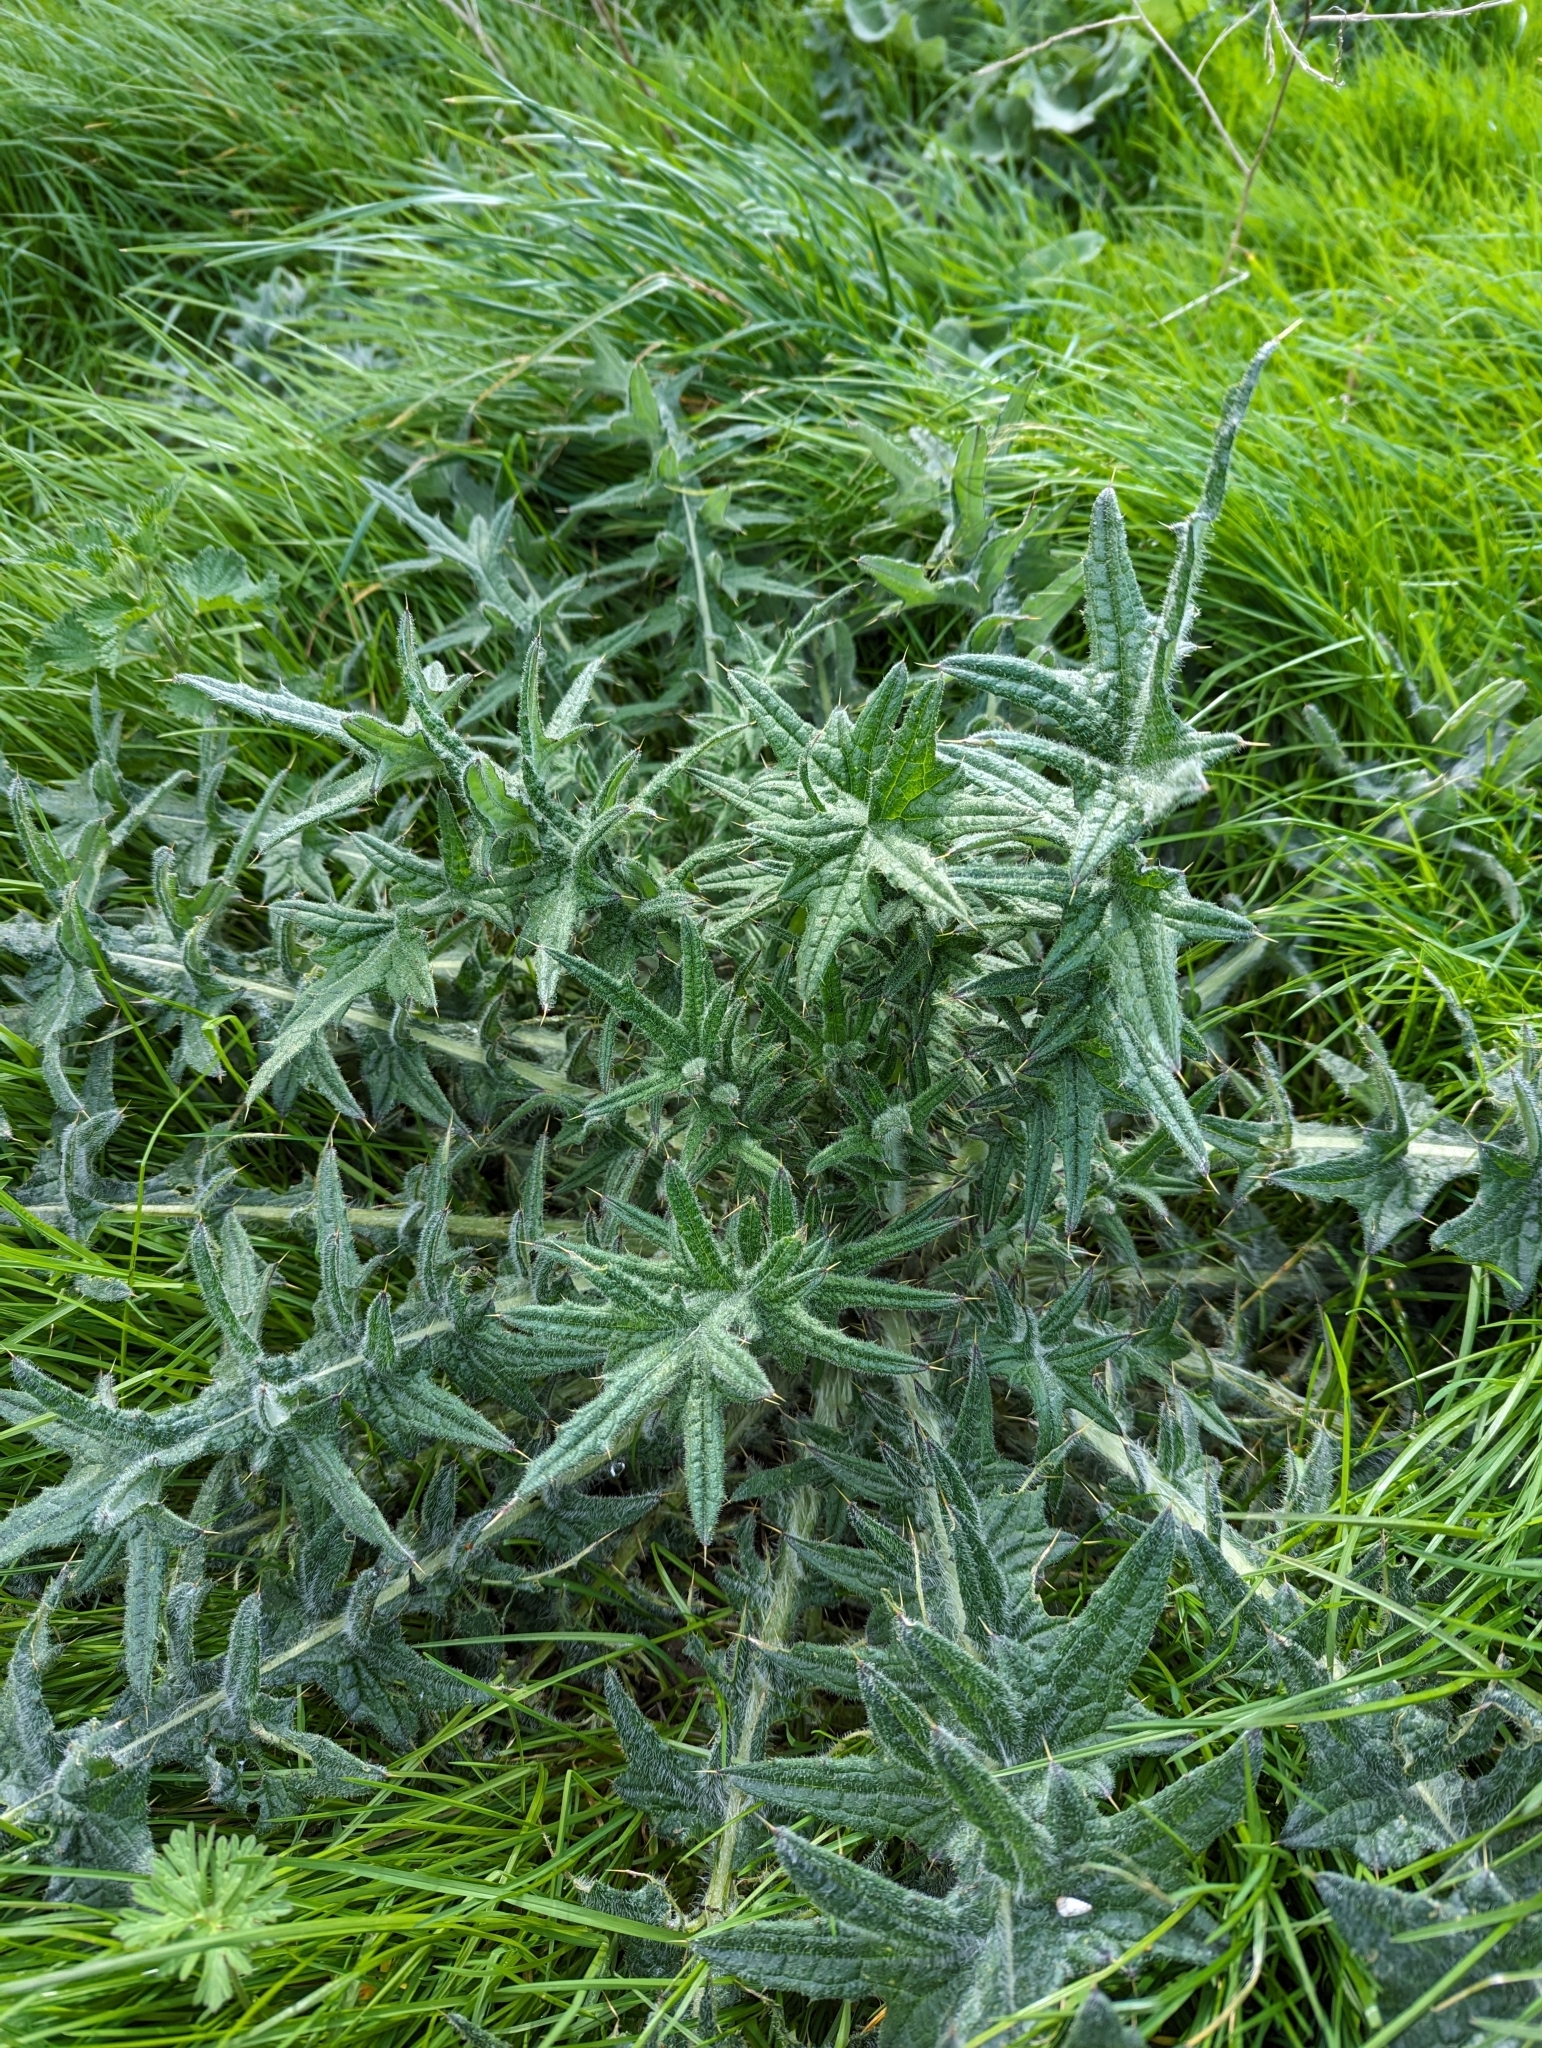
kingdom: Plantae
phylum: Tracheophyta
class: Magnoliopsida
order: Asterales
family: Asteraceae
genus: Cirsium
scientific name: Cirsium vulgare
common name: Bull thistle
